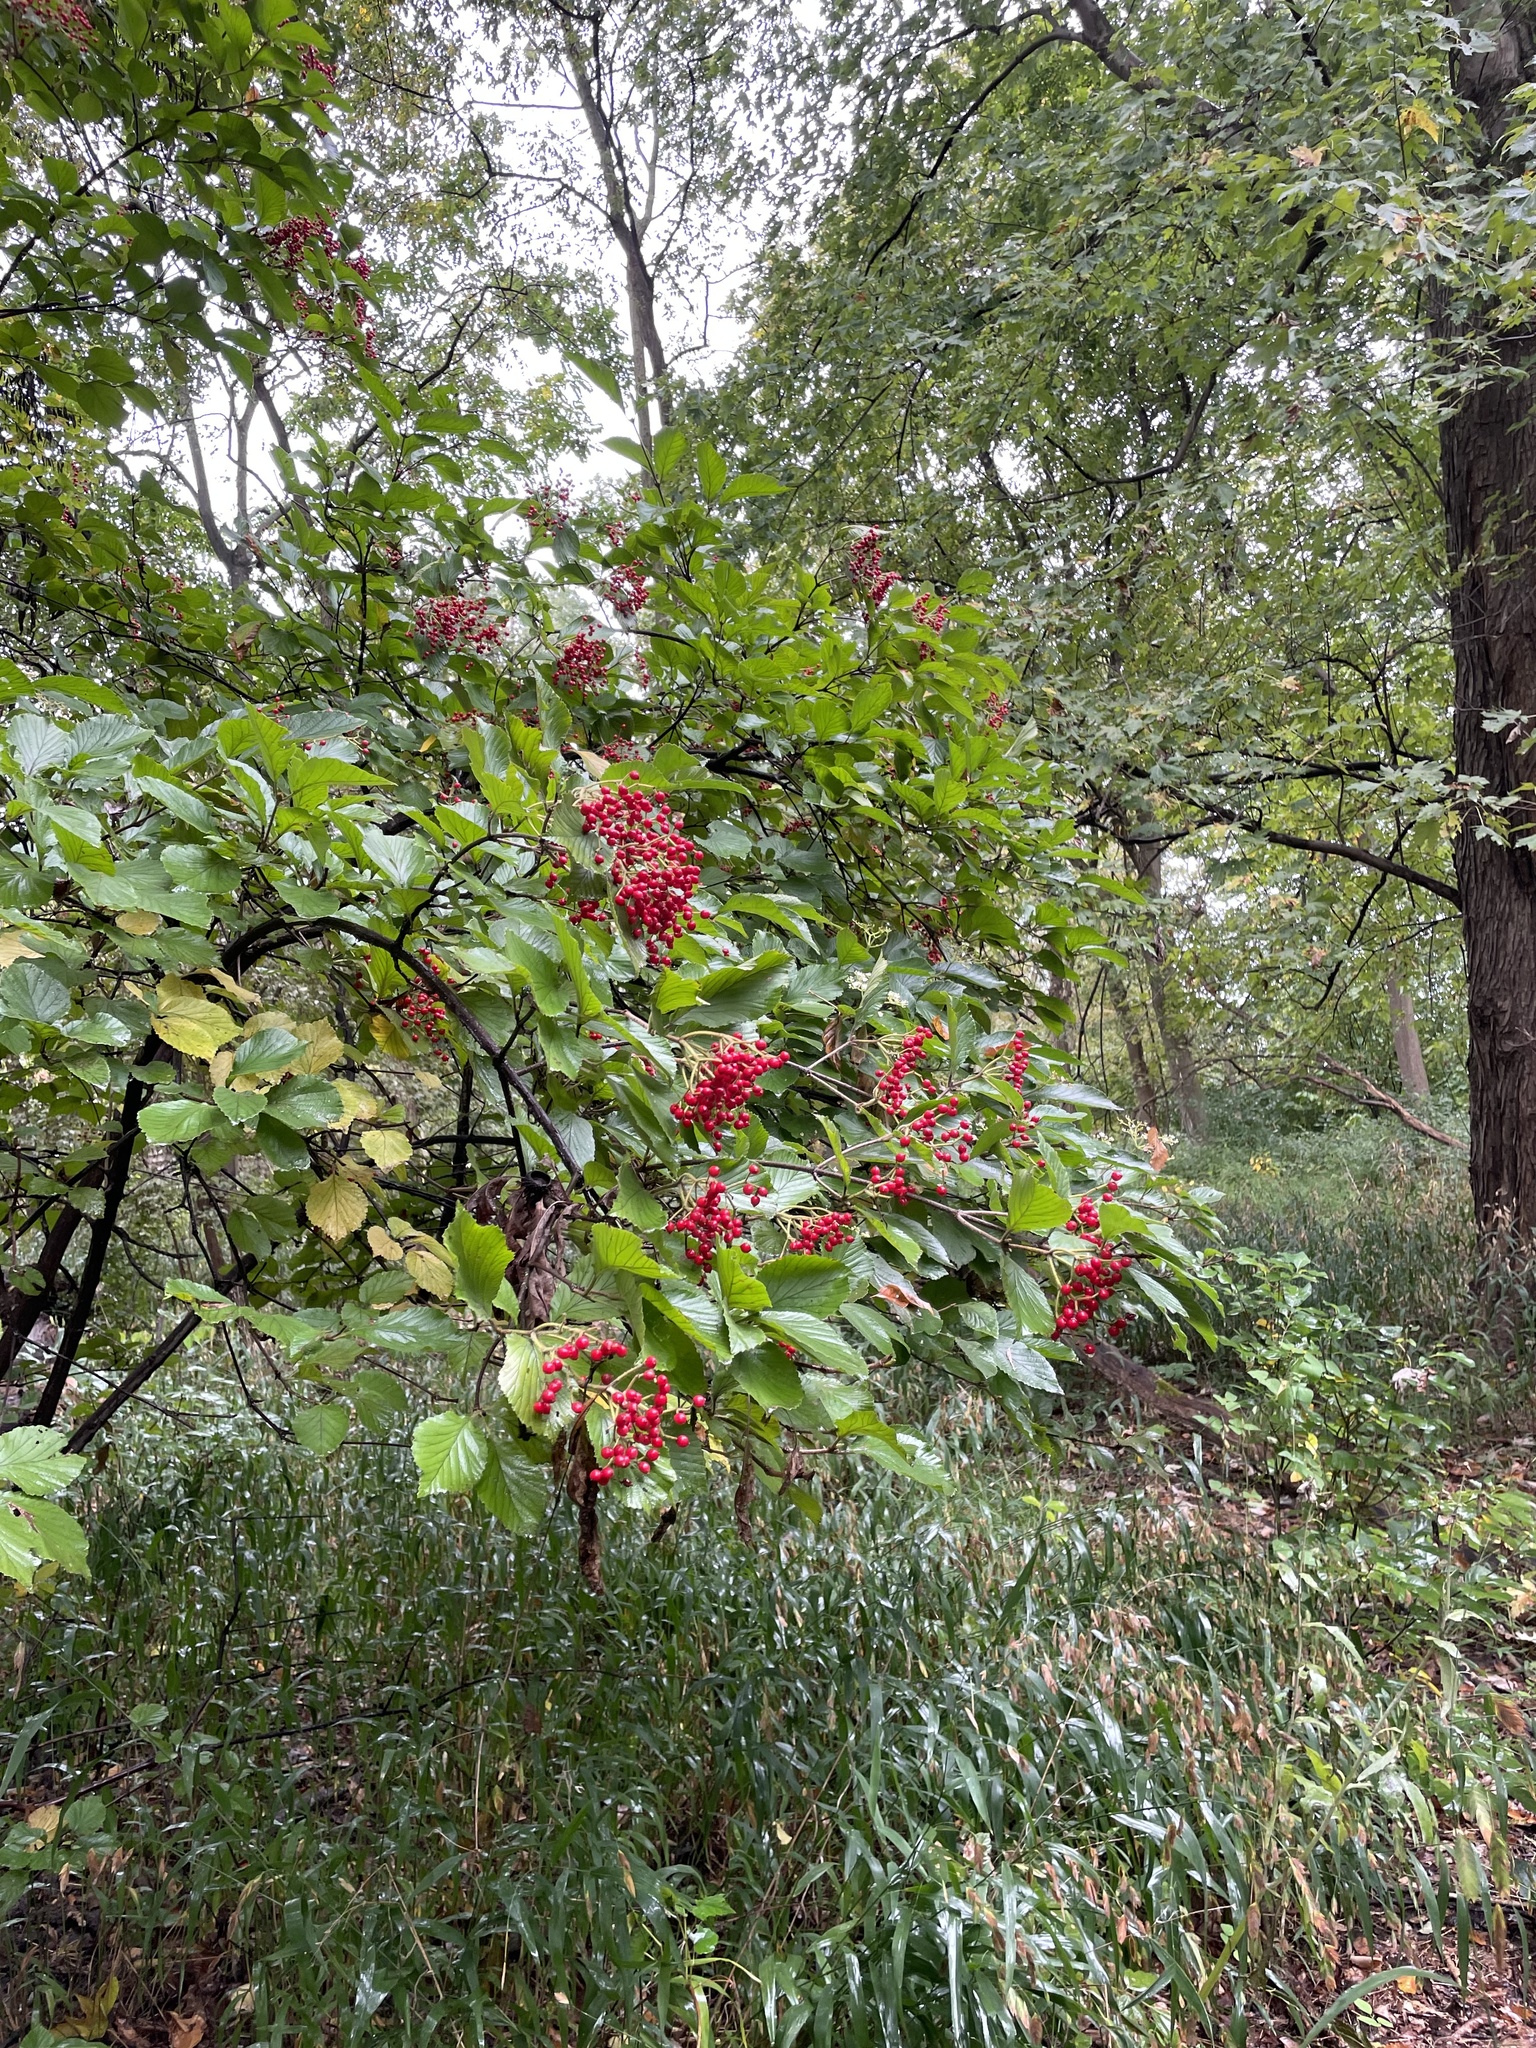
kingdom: Plantae
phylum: Tracheophyta
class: Magnoliopsida
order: Dipsacales
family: Viburnaceae
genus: Viburnum
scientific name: Viburnum dilatatum
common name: Linden arrowwood
